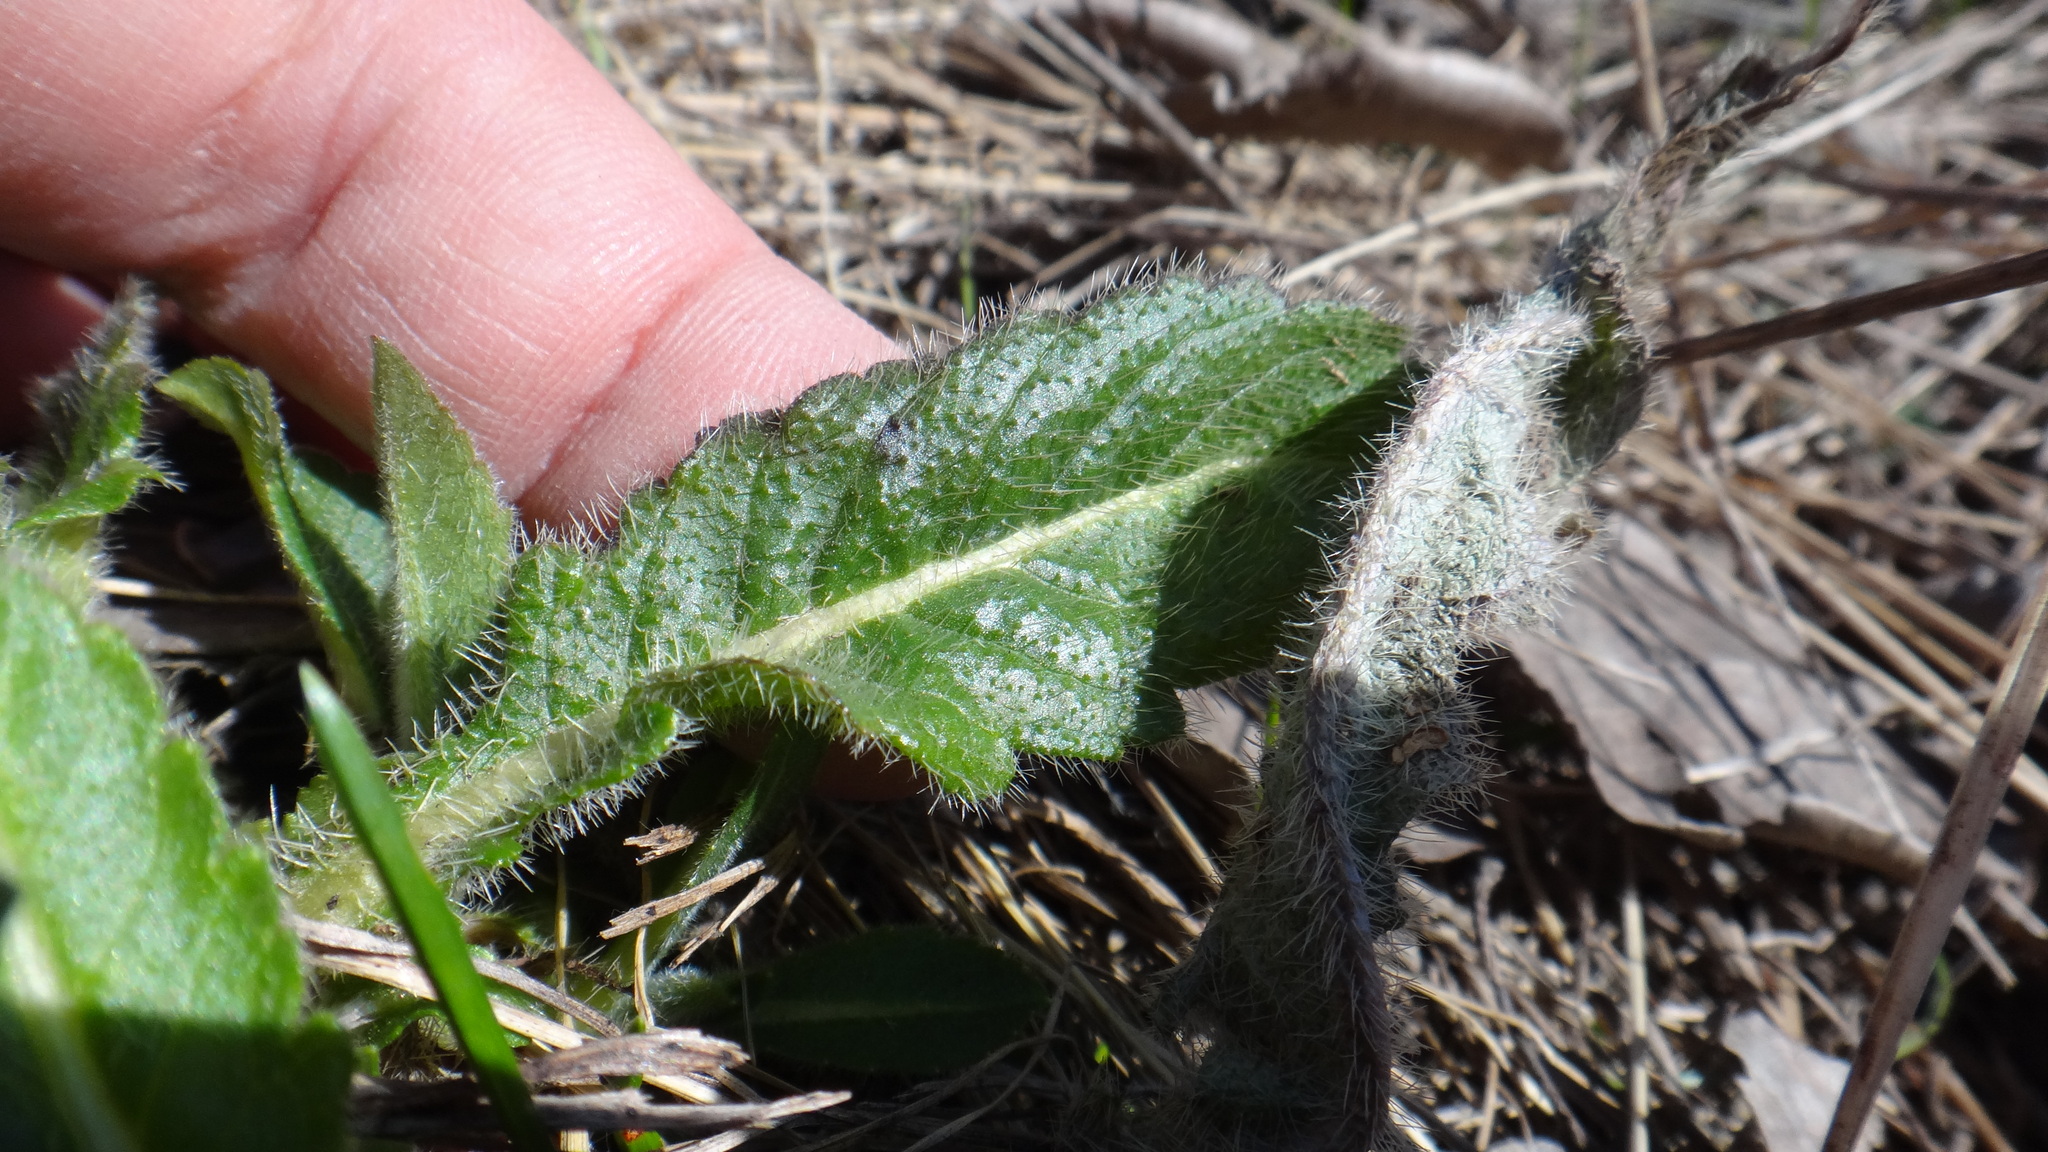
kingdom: Plantae
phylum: Tracheophyta
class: Magnoliopsida
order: Dipsacales
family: Caprifoliaceae
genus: Knautia
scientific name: Knautia arvensis
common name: Field scabiosa
